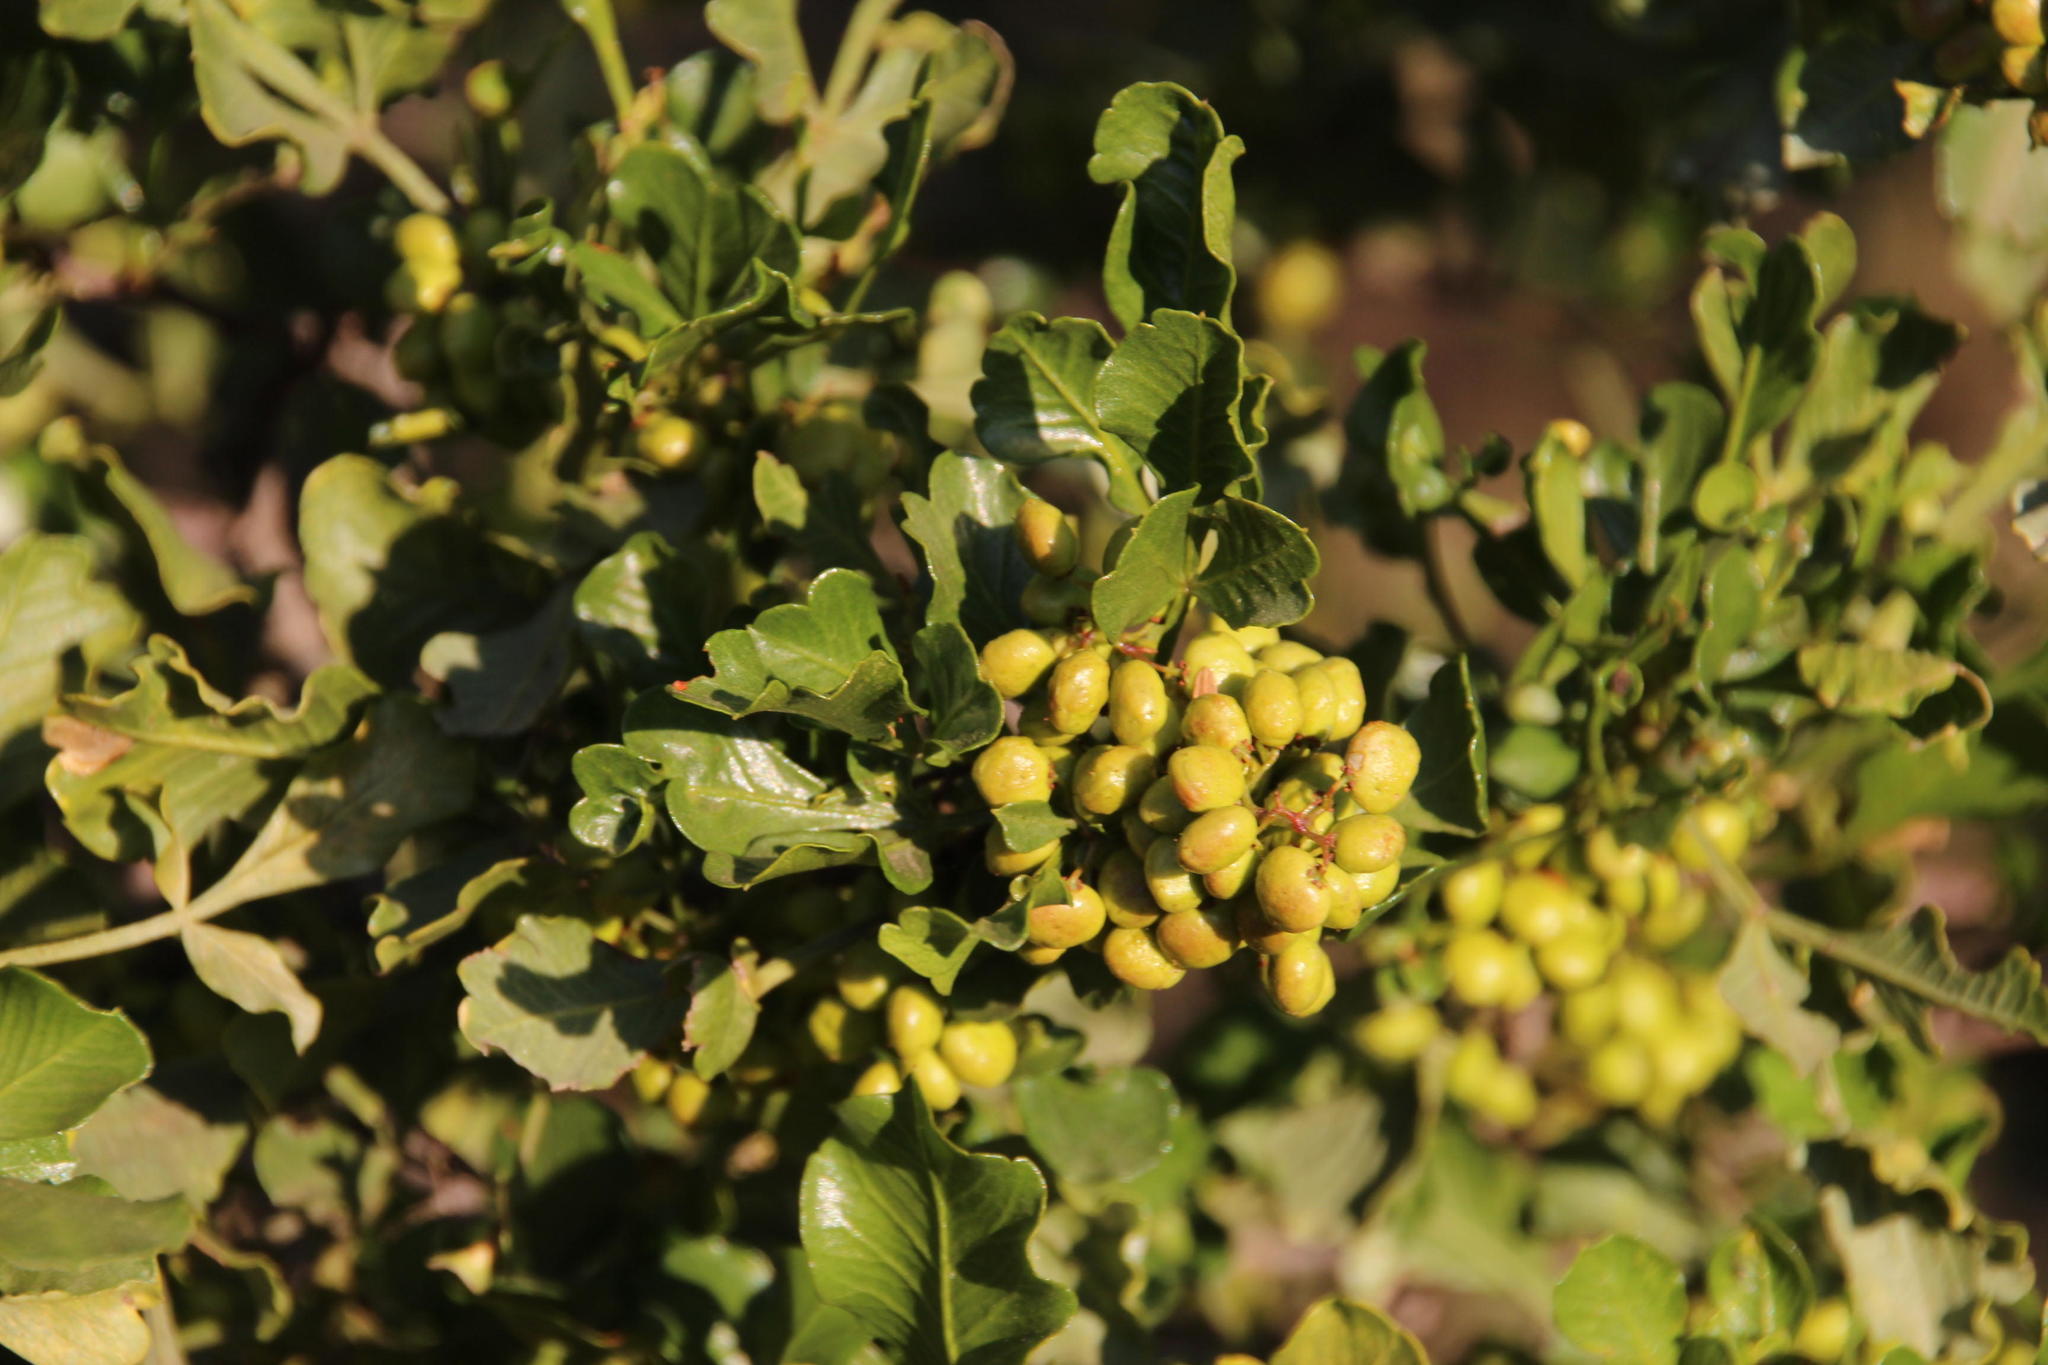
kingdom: Plantae
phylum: Tracheophyta
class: Magnoliopsida
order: Sapindales
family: Anacardiaceae
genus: Searsia
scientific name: Searsia undulata
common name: Namaqua kunibush
